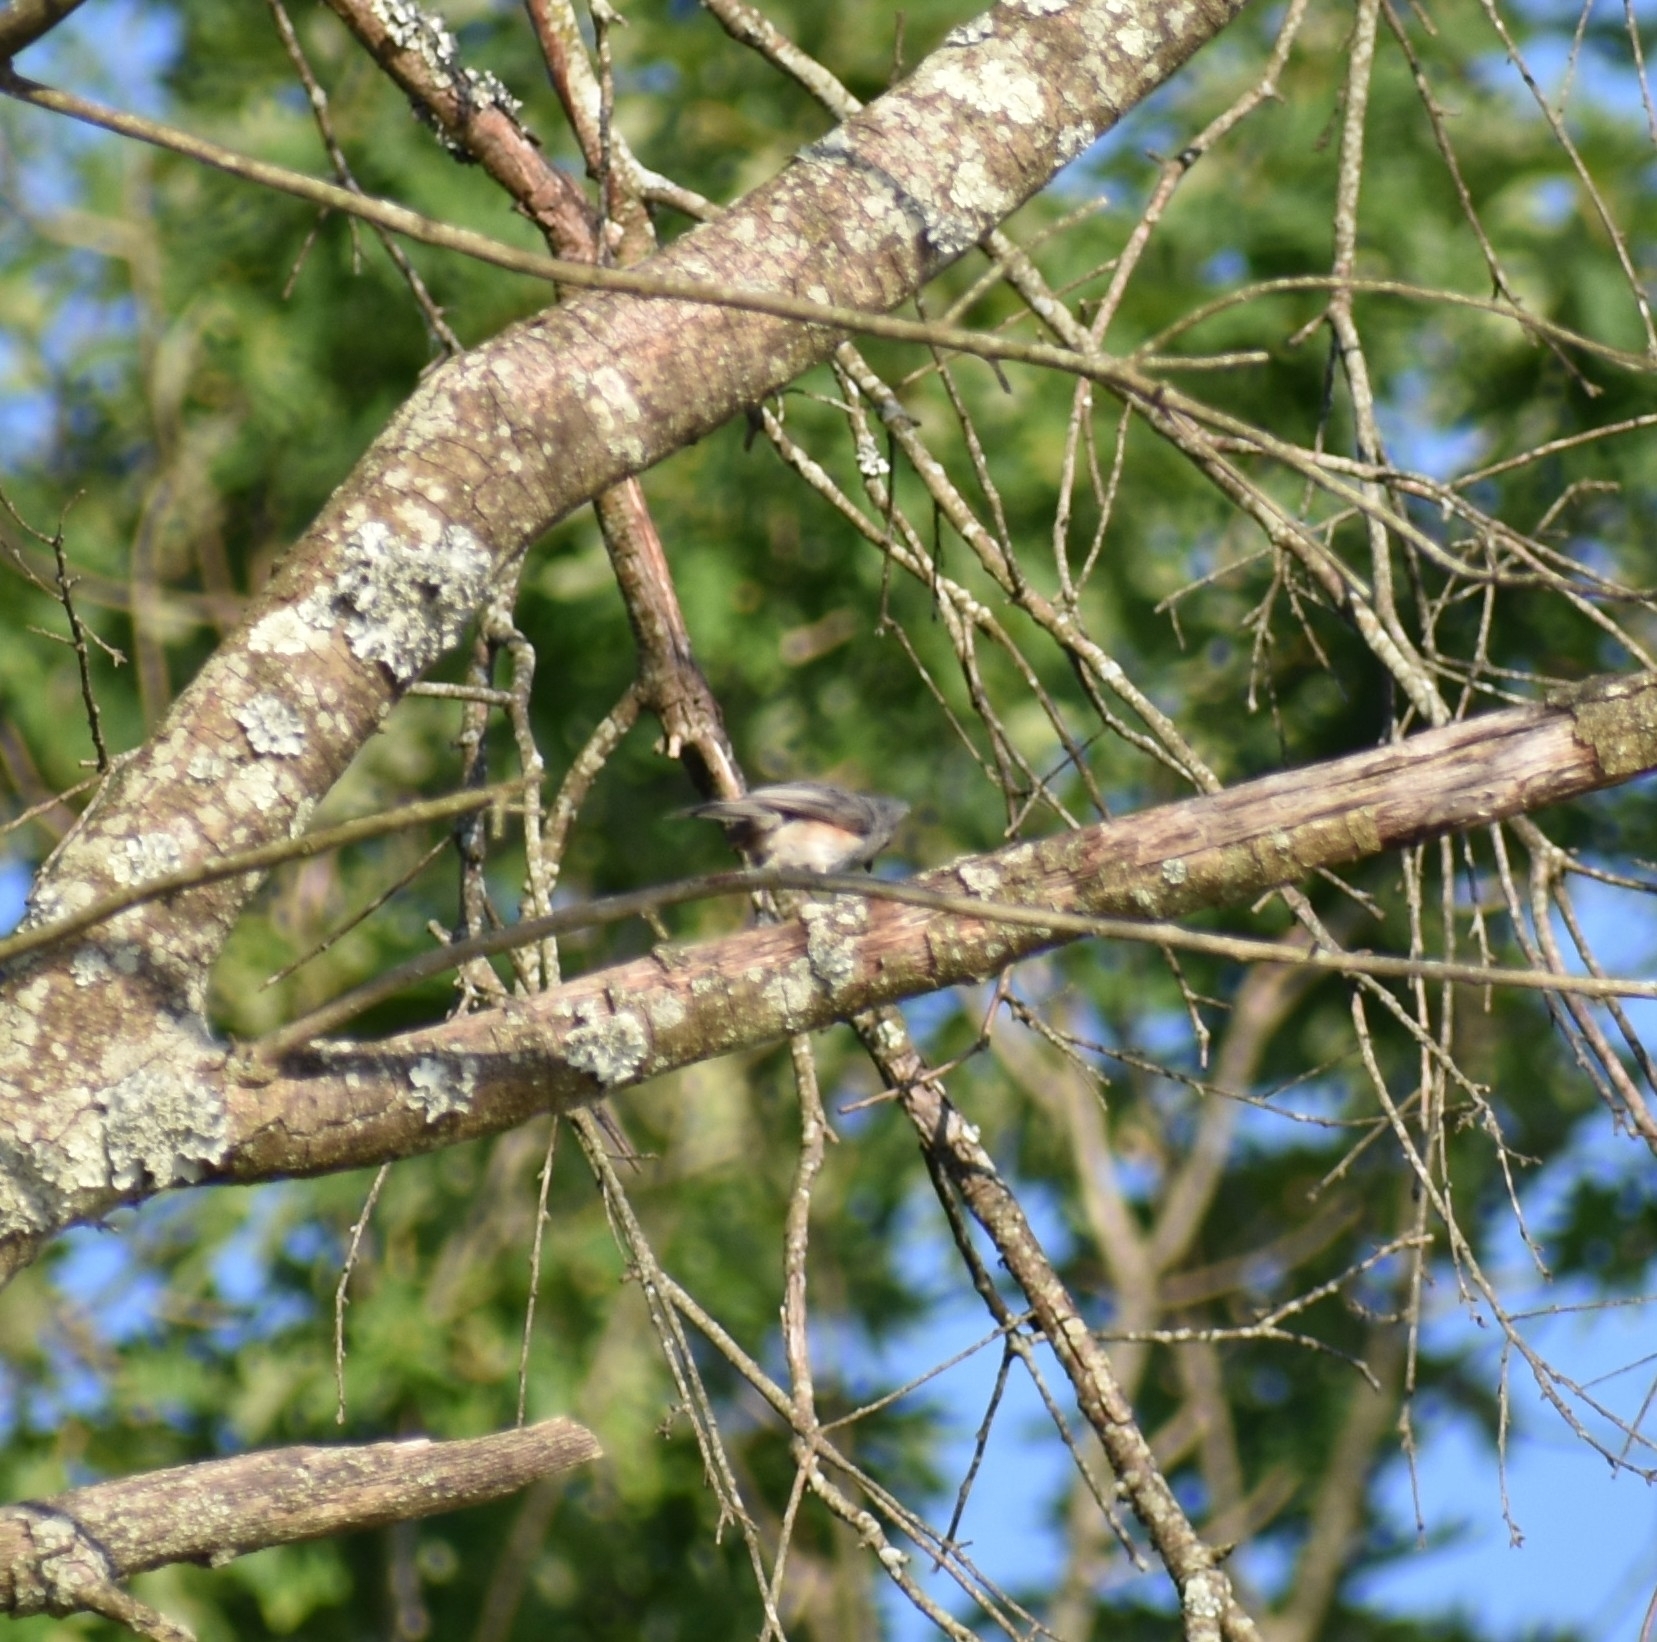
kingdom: Animalia
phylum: Chordata
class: Aves
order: Passeriformes
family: Paridae
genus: Baeolophus
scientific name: Baeolophus bicolor
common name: Tufted titmouse
